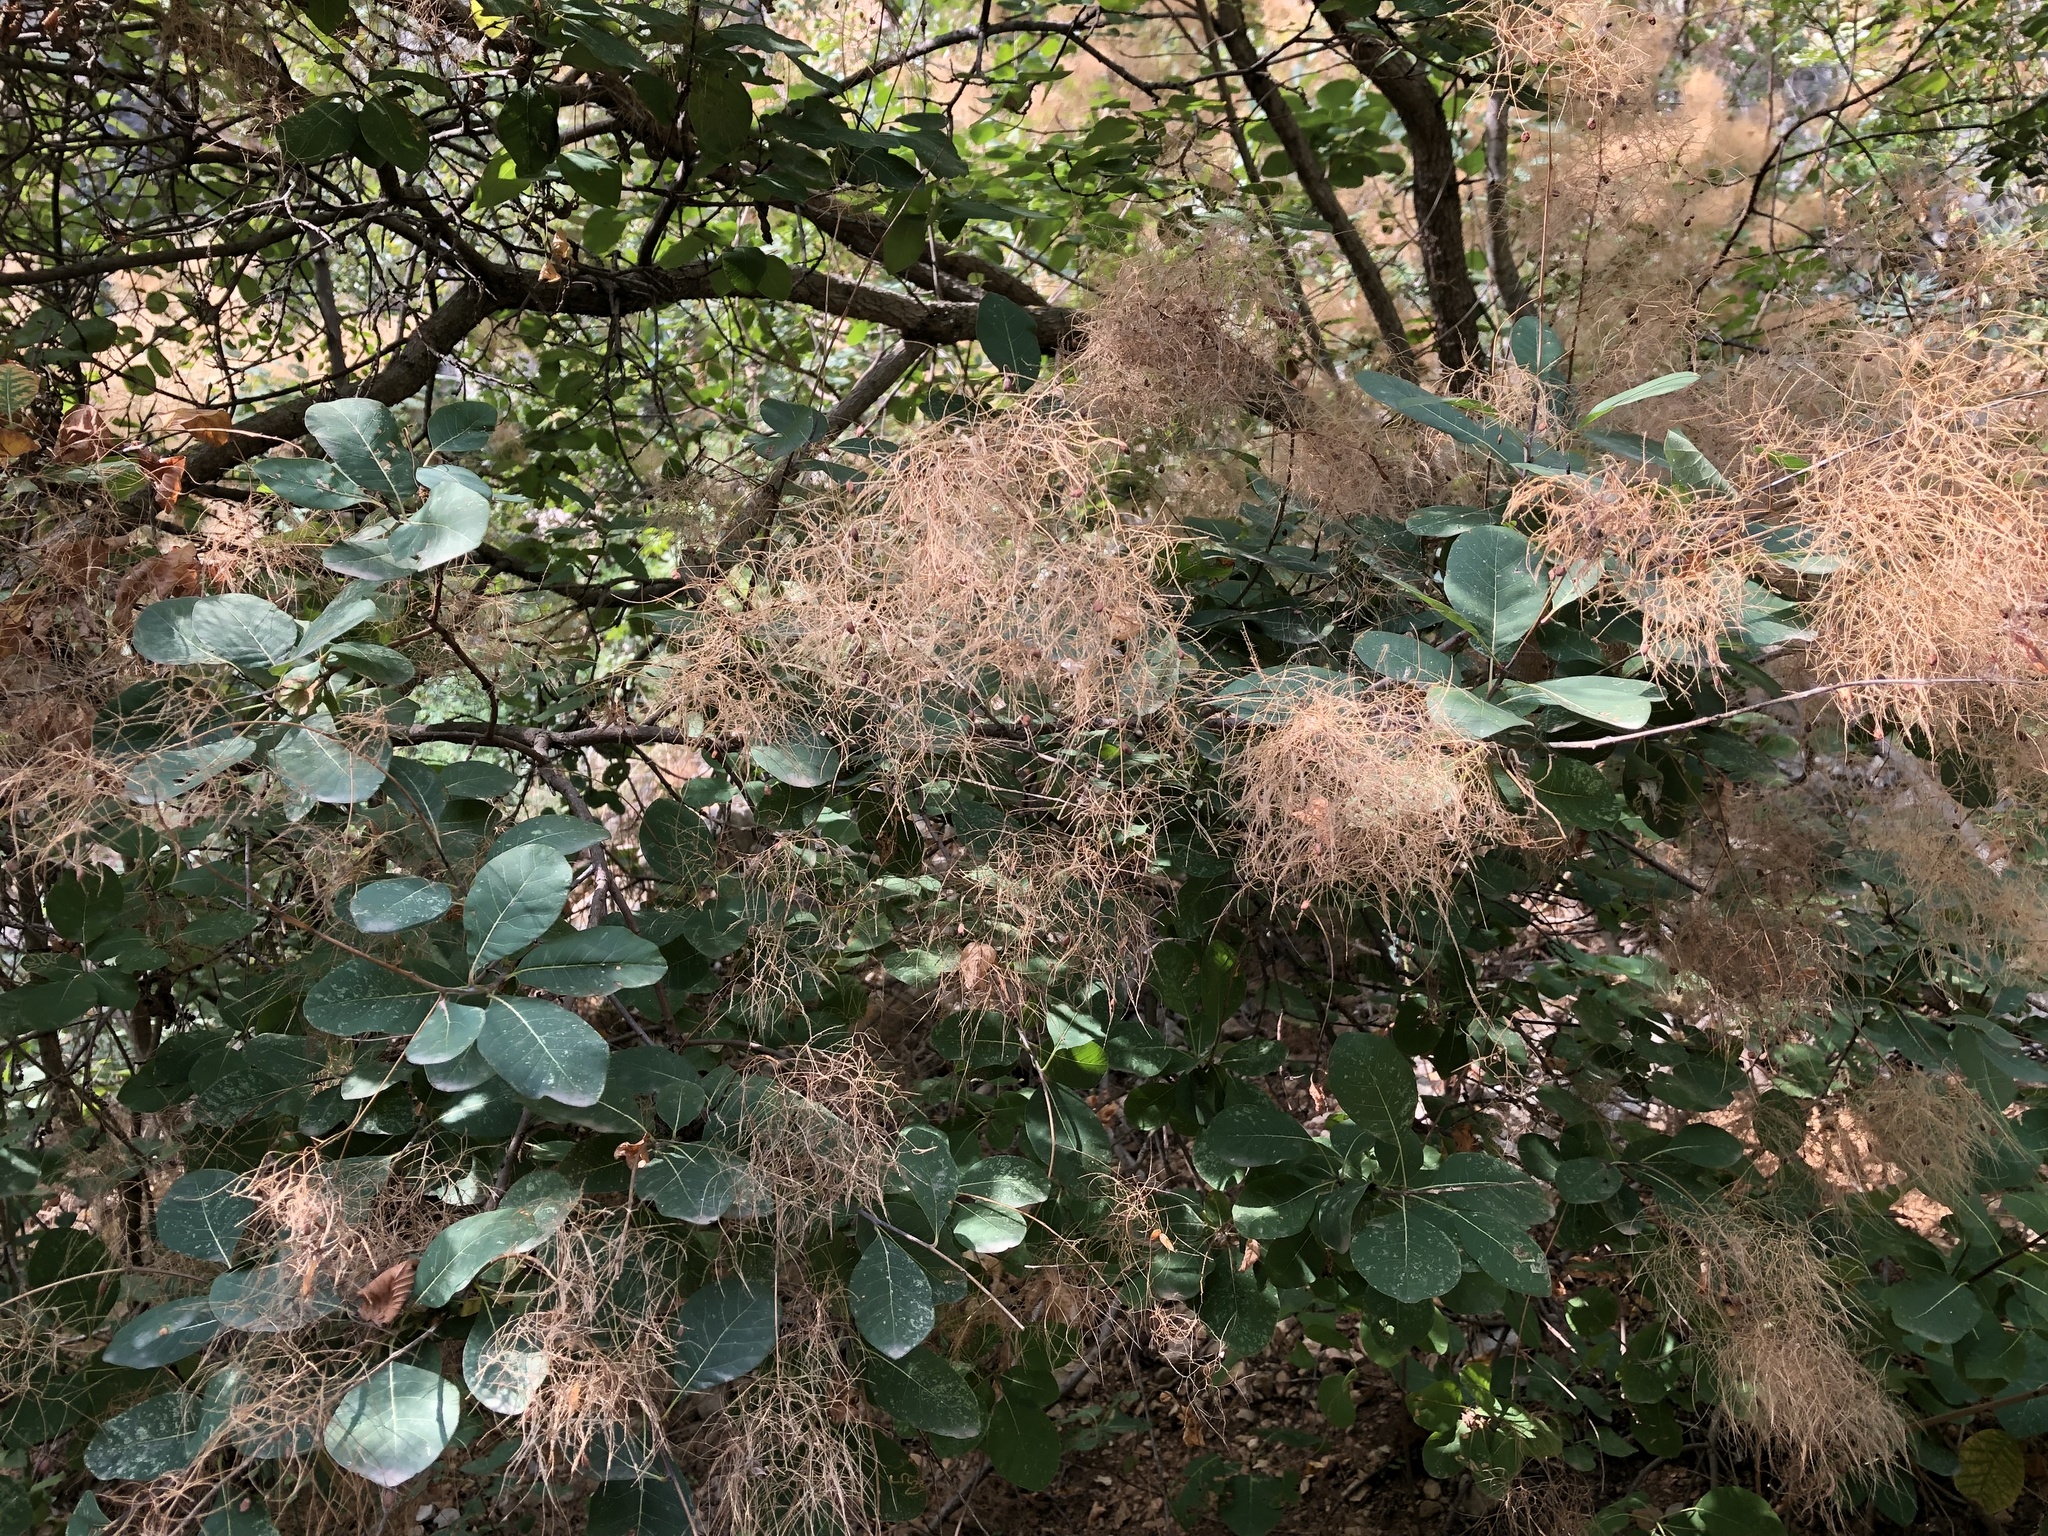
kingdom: Plantae
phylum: Tracheophyta
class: Magnoliopsida
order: Sapindales
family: Anacardiaceae
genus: Cotinus
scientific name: Cotinus coggygria
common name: Smoke-tree
